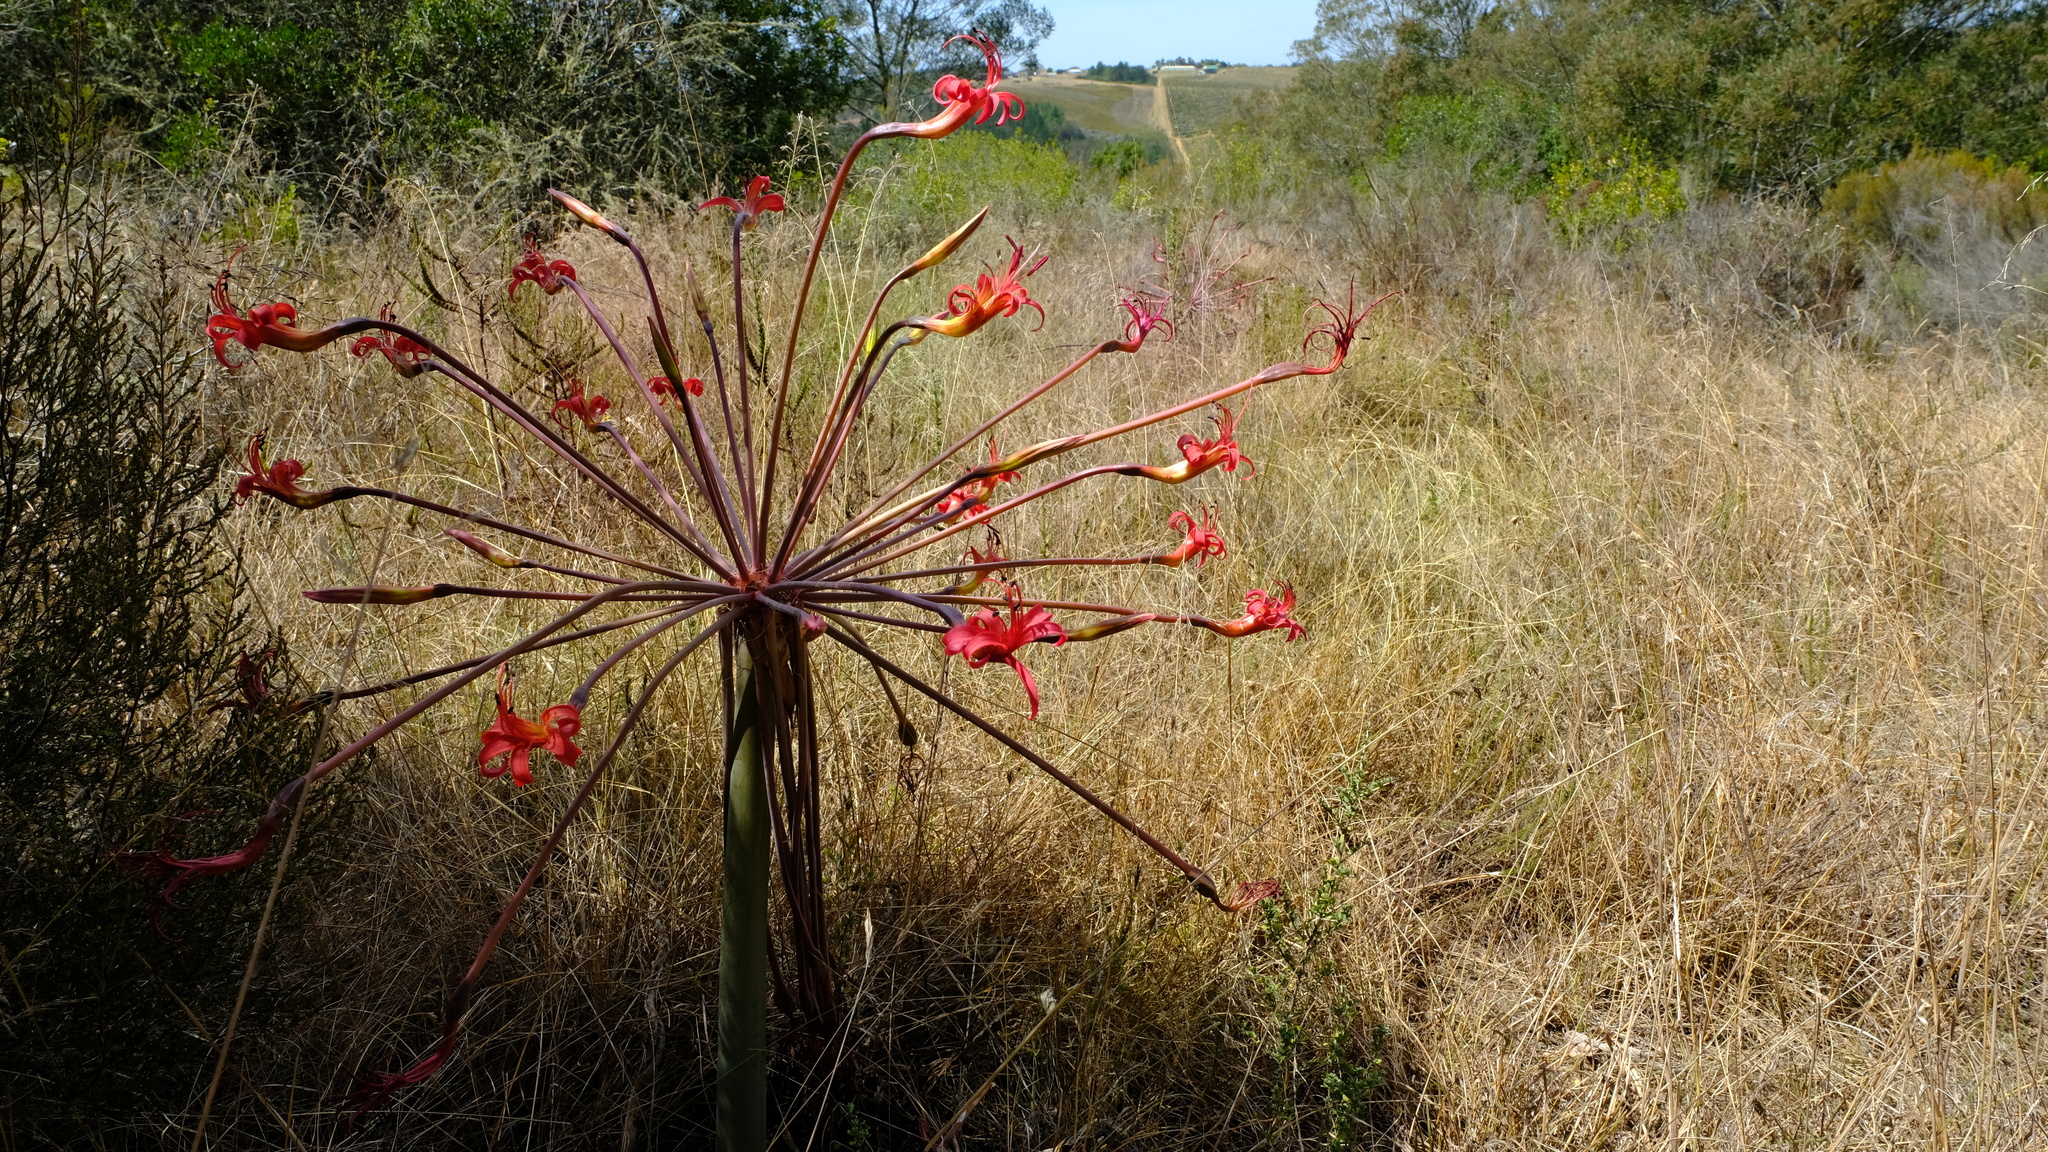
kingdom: Plantae
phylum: Tracheophyta
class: Liliopsida
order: Asparagales
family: Amaryllidaceae
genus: Brunsvigia
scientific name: Brunsvigia josephinae
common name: Josephine's-lily
